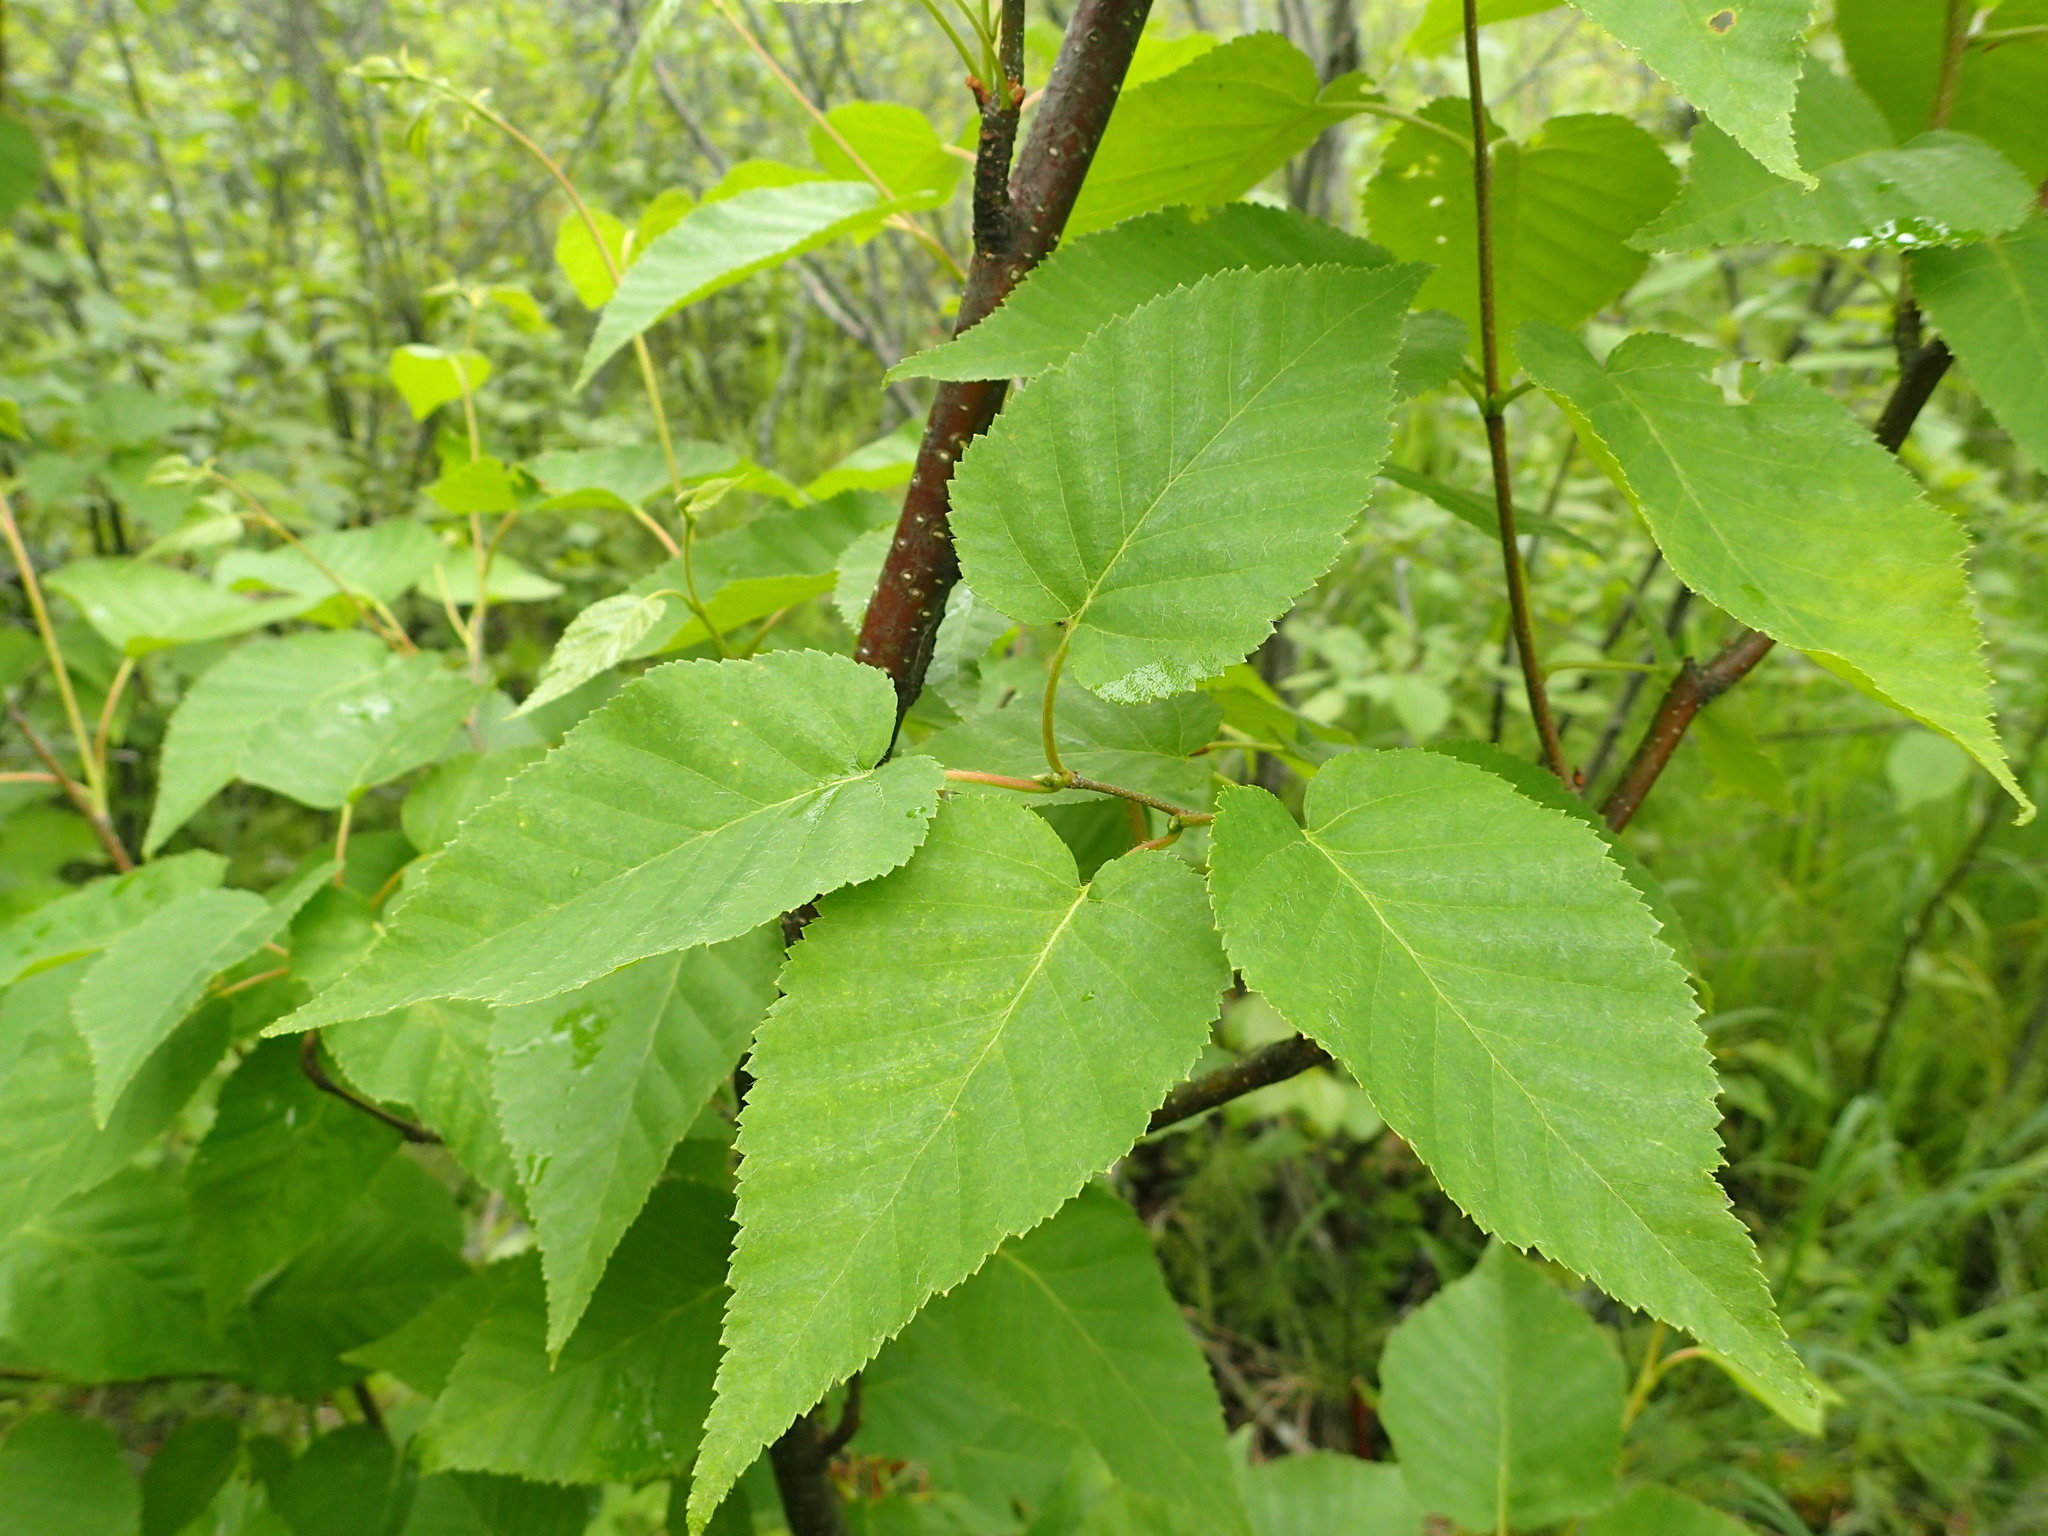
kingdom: Plantae
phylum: Tracheophyta
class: Magnoliopsida
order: Fagales
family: Betulaceae
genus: Betula
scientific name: Betula cordifolia
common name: Mountain white birch
